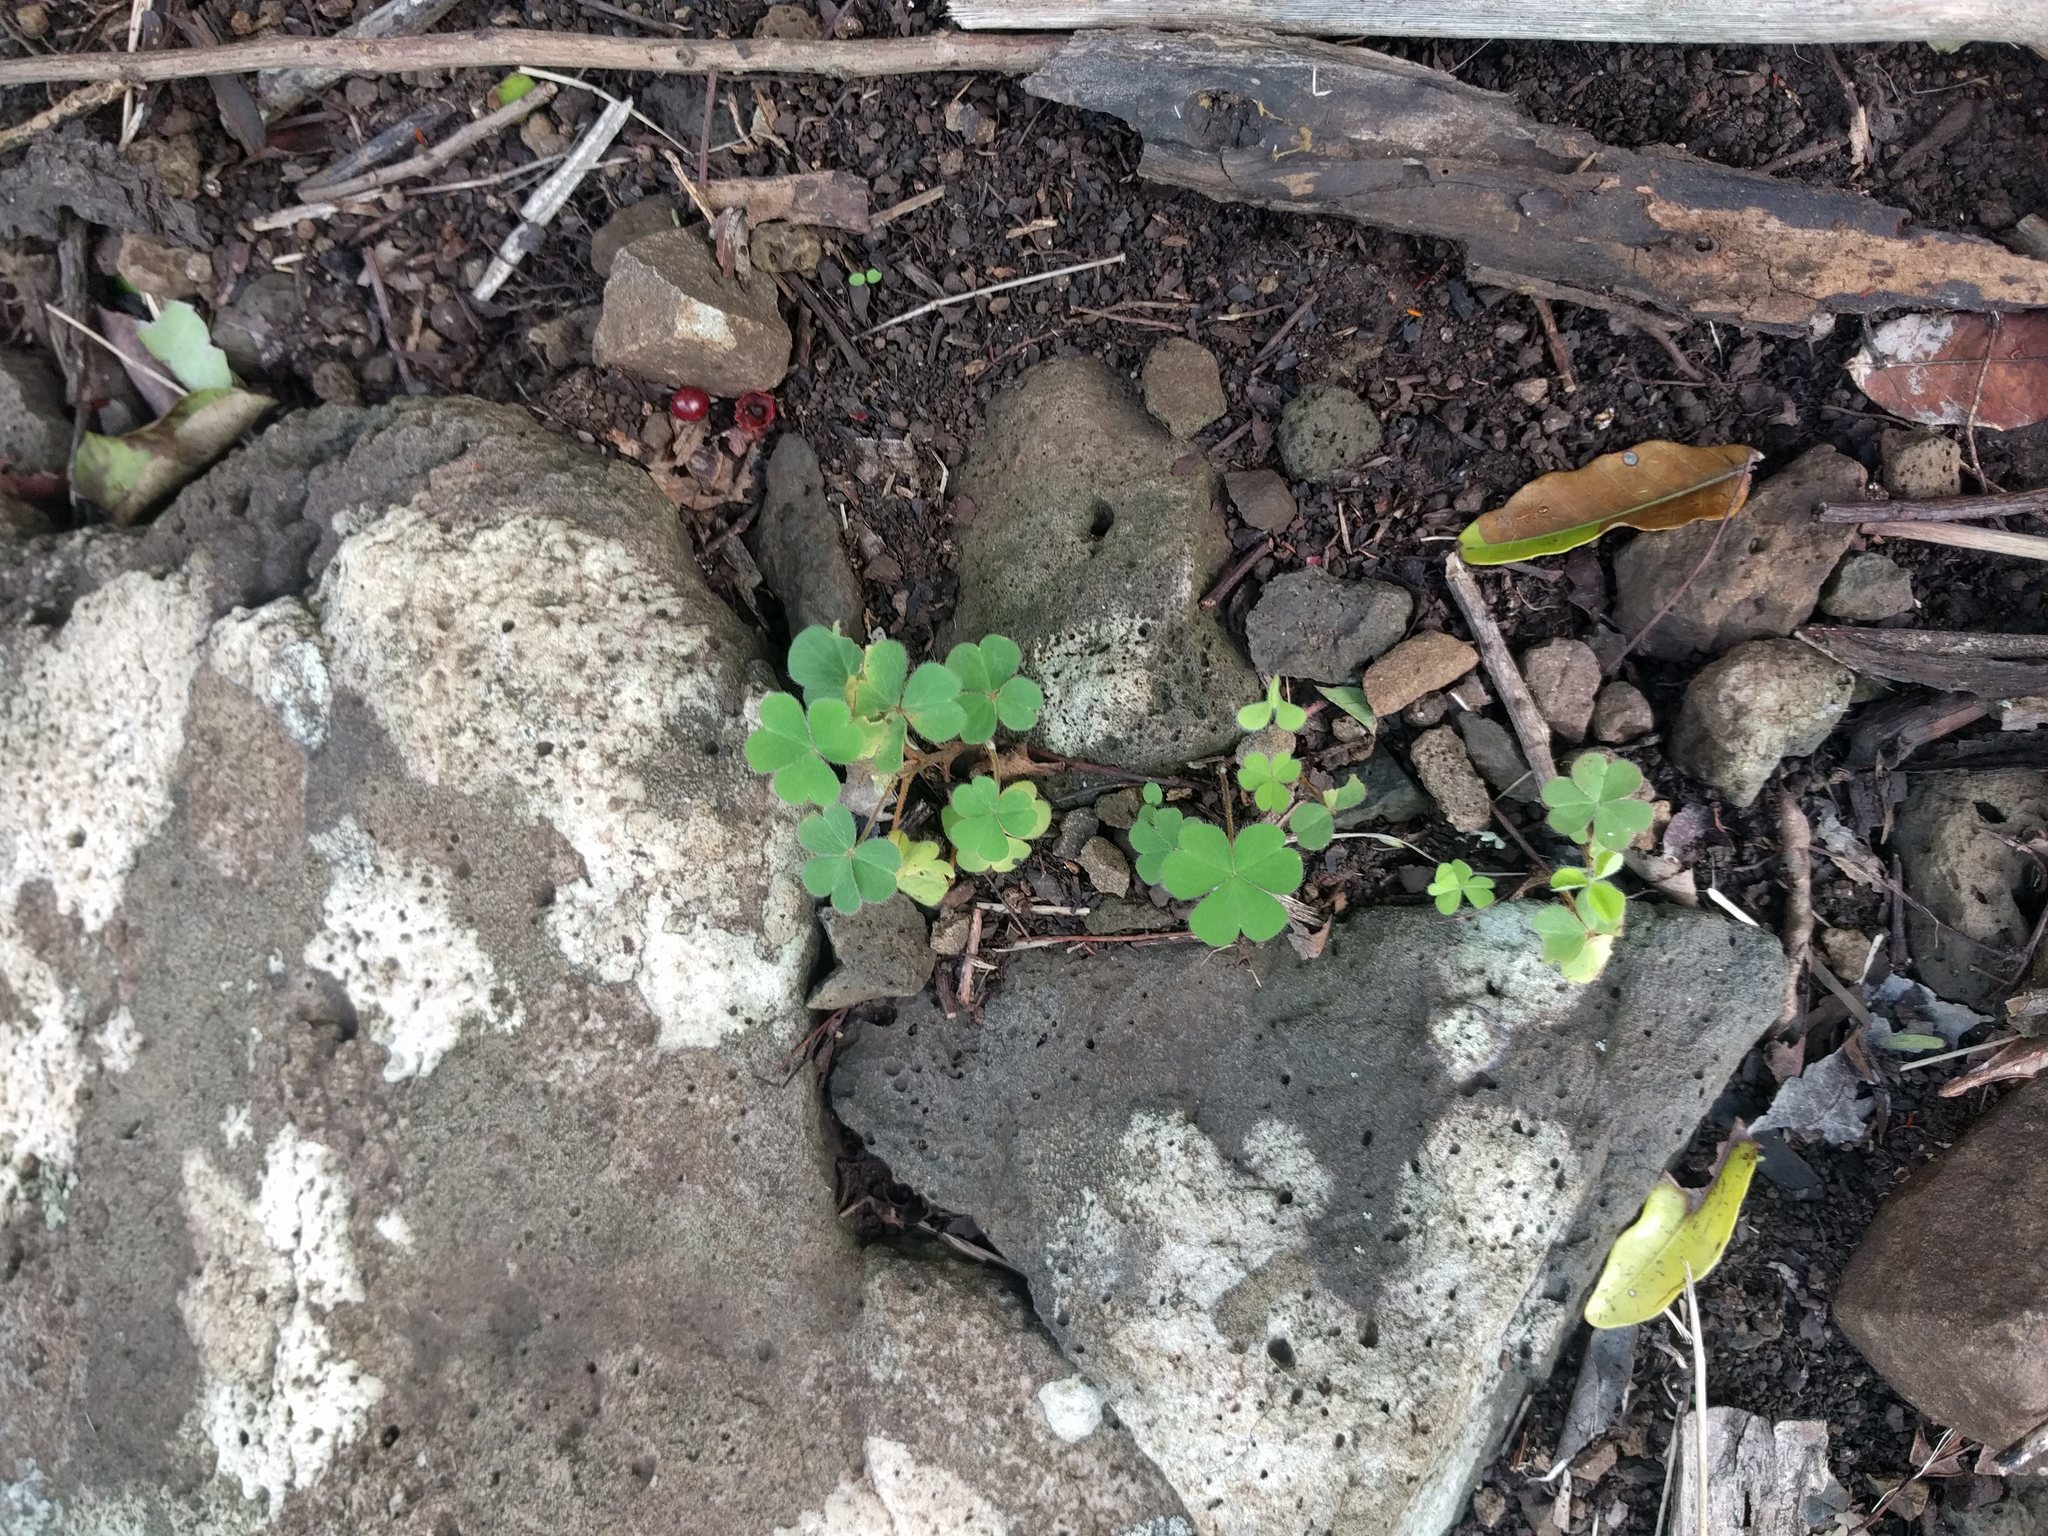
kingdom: Plantae
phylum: Tracheophyta
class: Magnoliopsida
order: Oxalidales
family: Oxalidaceae
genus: Oxalis
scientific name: Oxalis corniculata
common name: Procumbent yellow-sorrel
